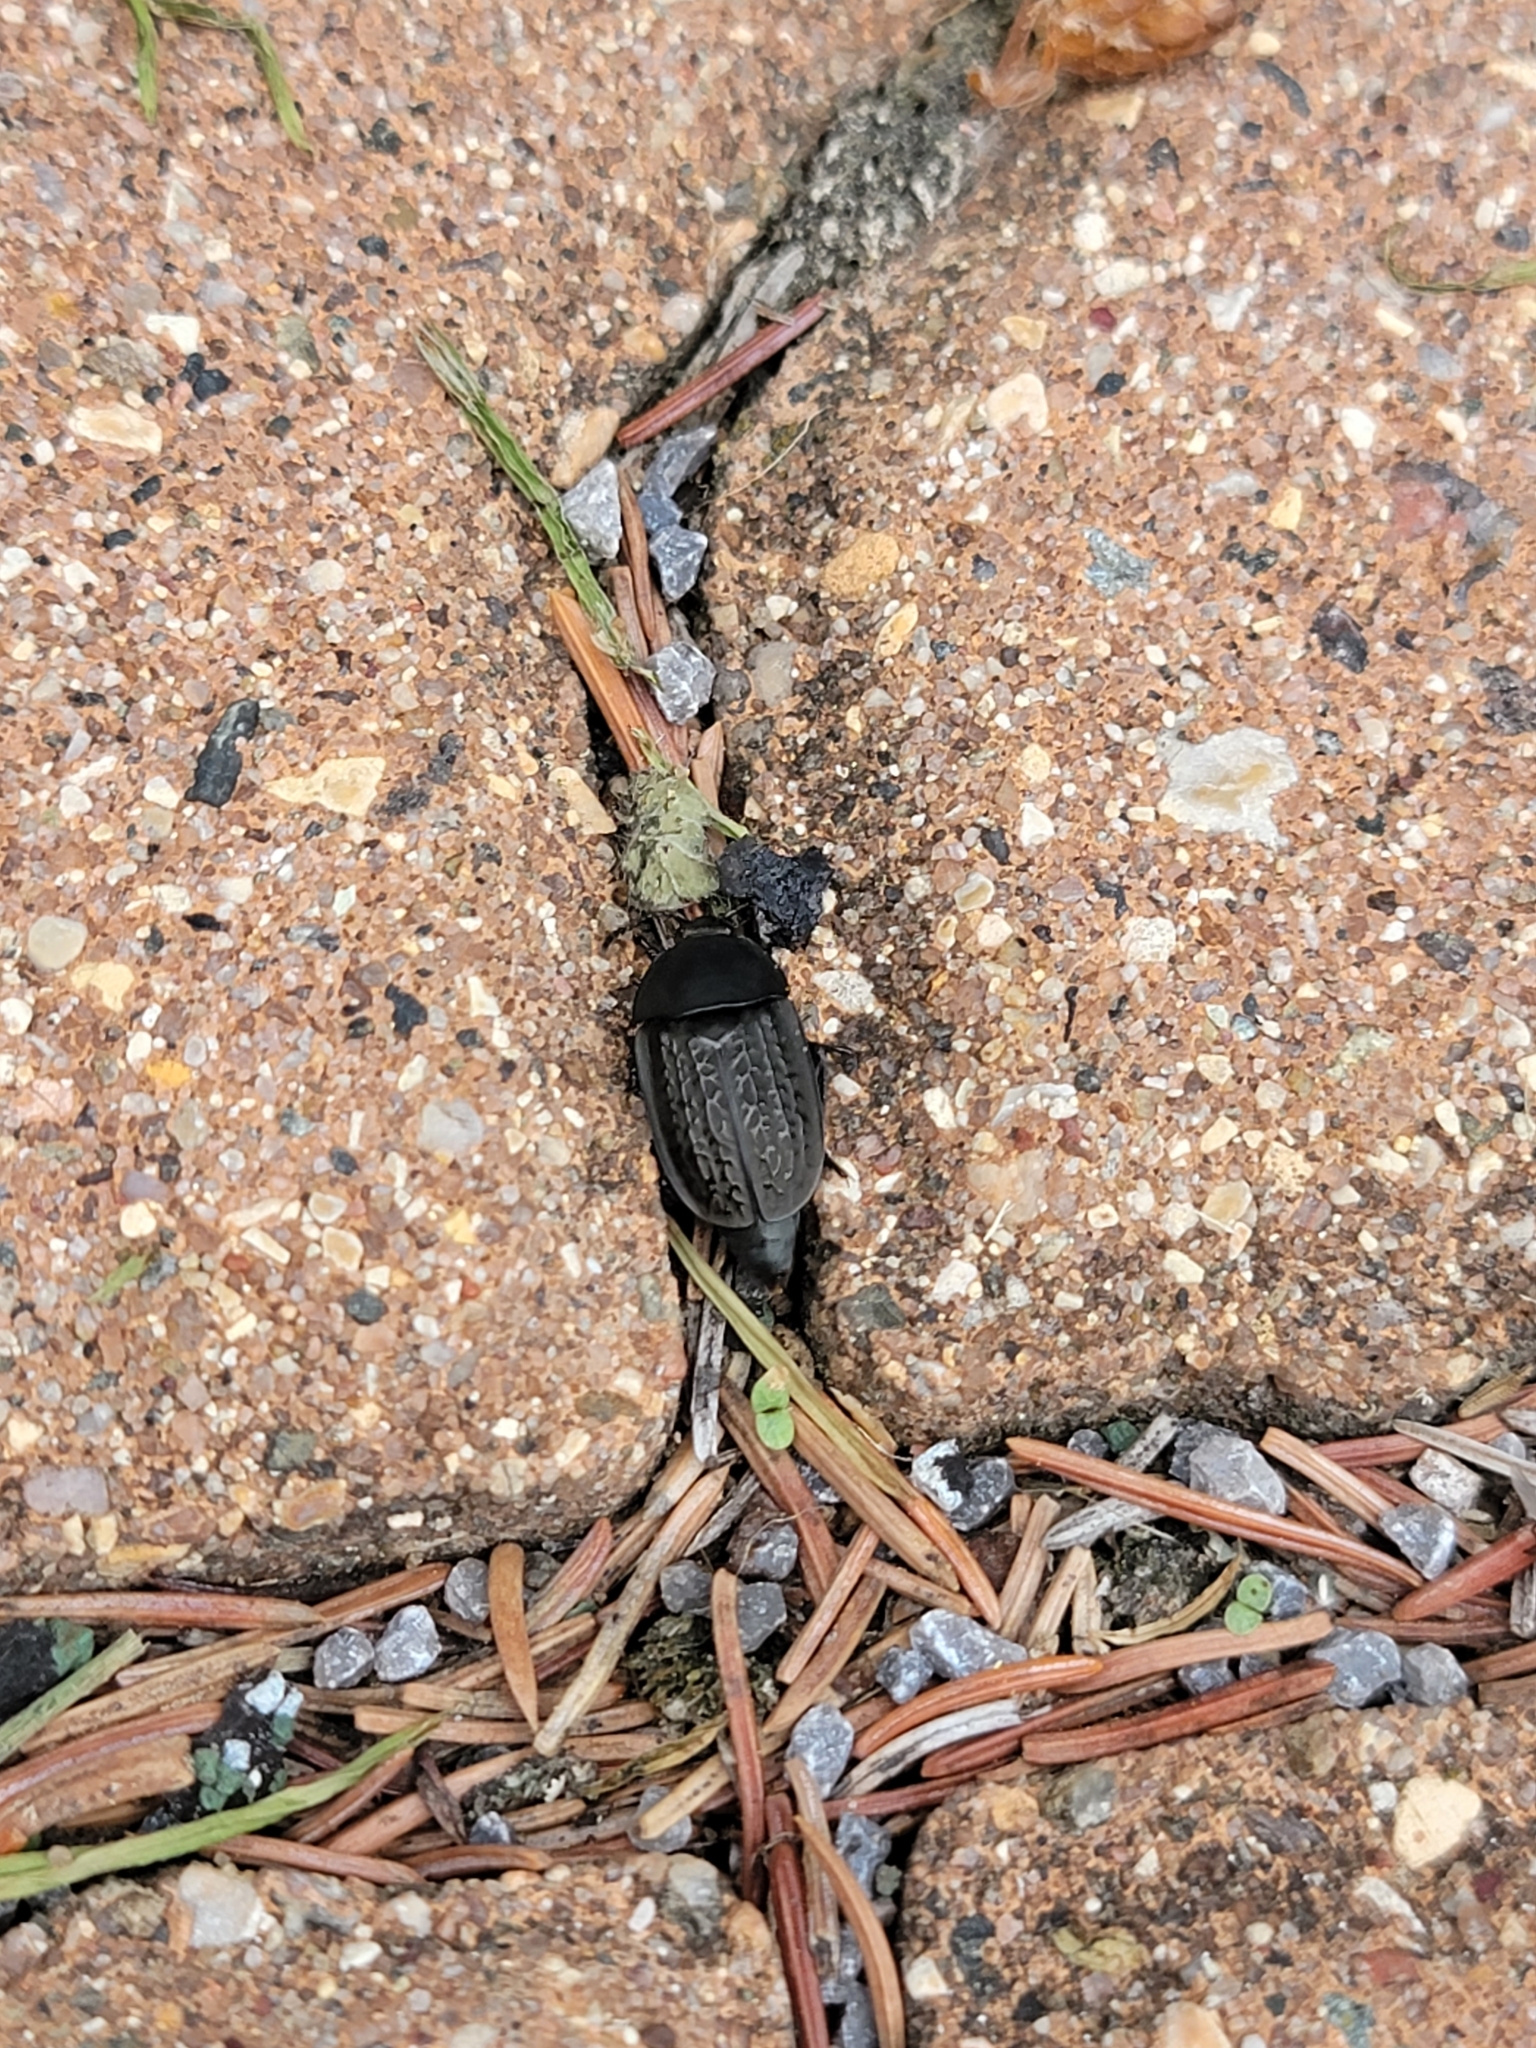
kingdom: Animalia
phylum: Arthropoda
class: Insecta
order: Coleoptera
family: Staphylinidae
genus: Heterosilpha
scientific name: Heterosilpha ramosa
